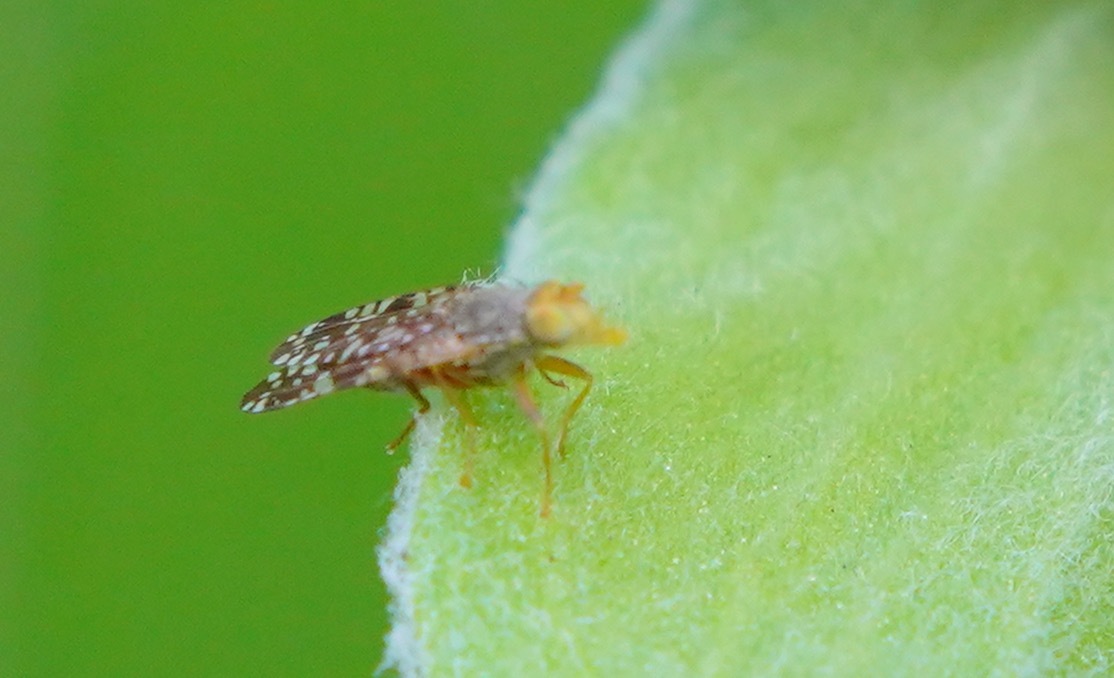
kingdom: Animalia
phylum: Arthropoda
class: Insecta
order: Diptera
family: Tephritidae
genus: Neotephritis
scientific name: Neotephritis finalis
